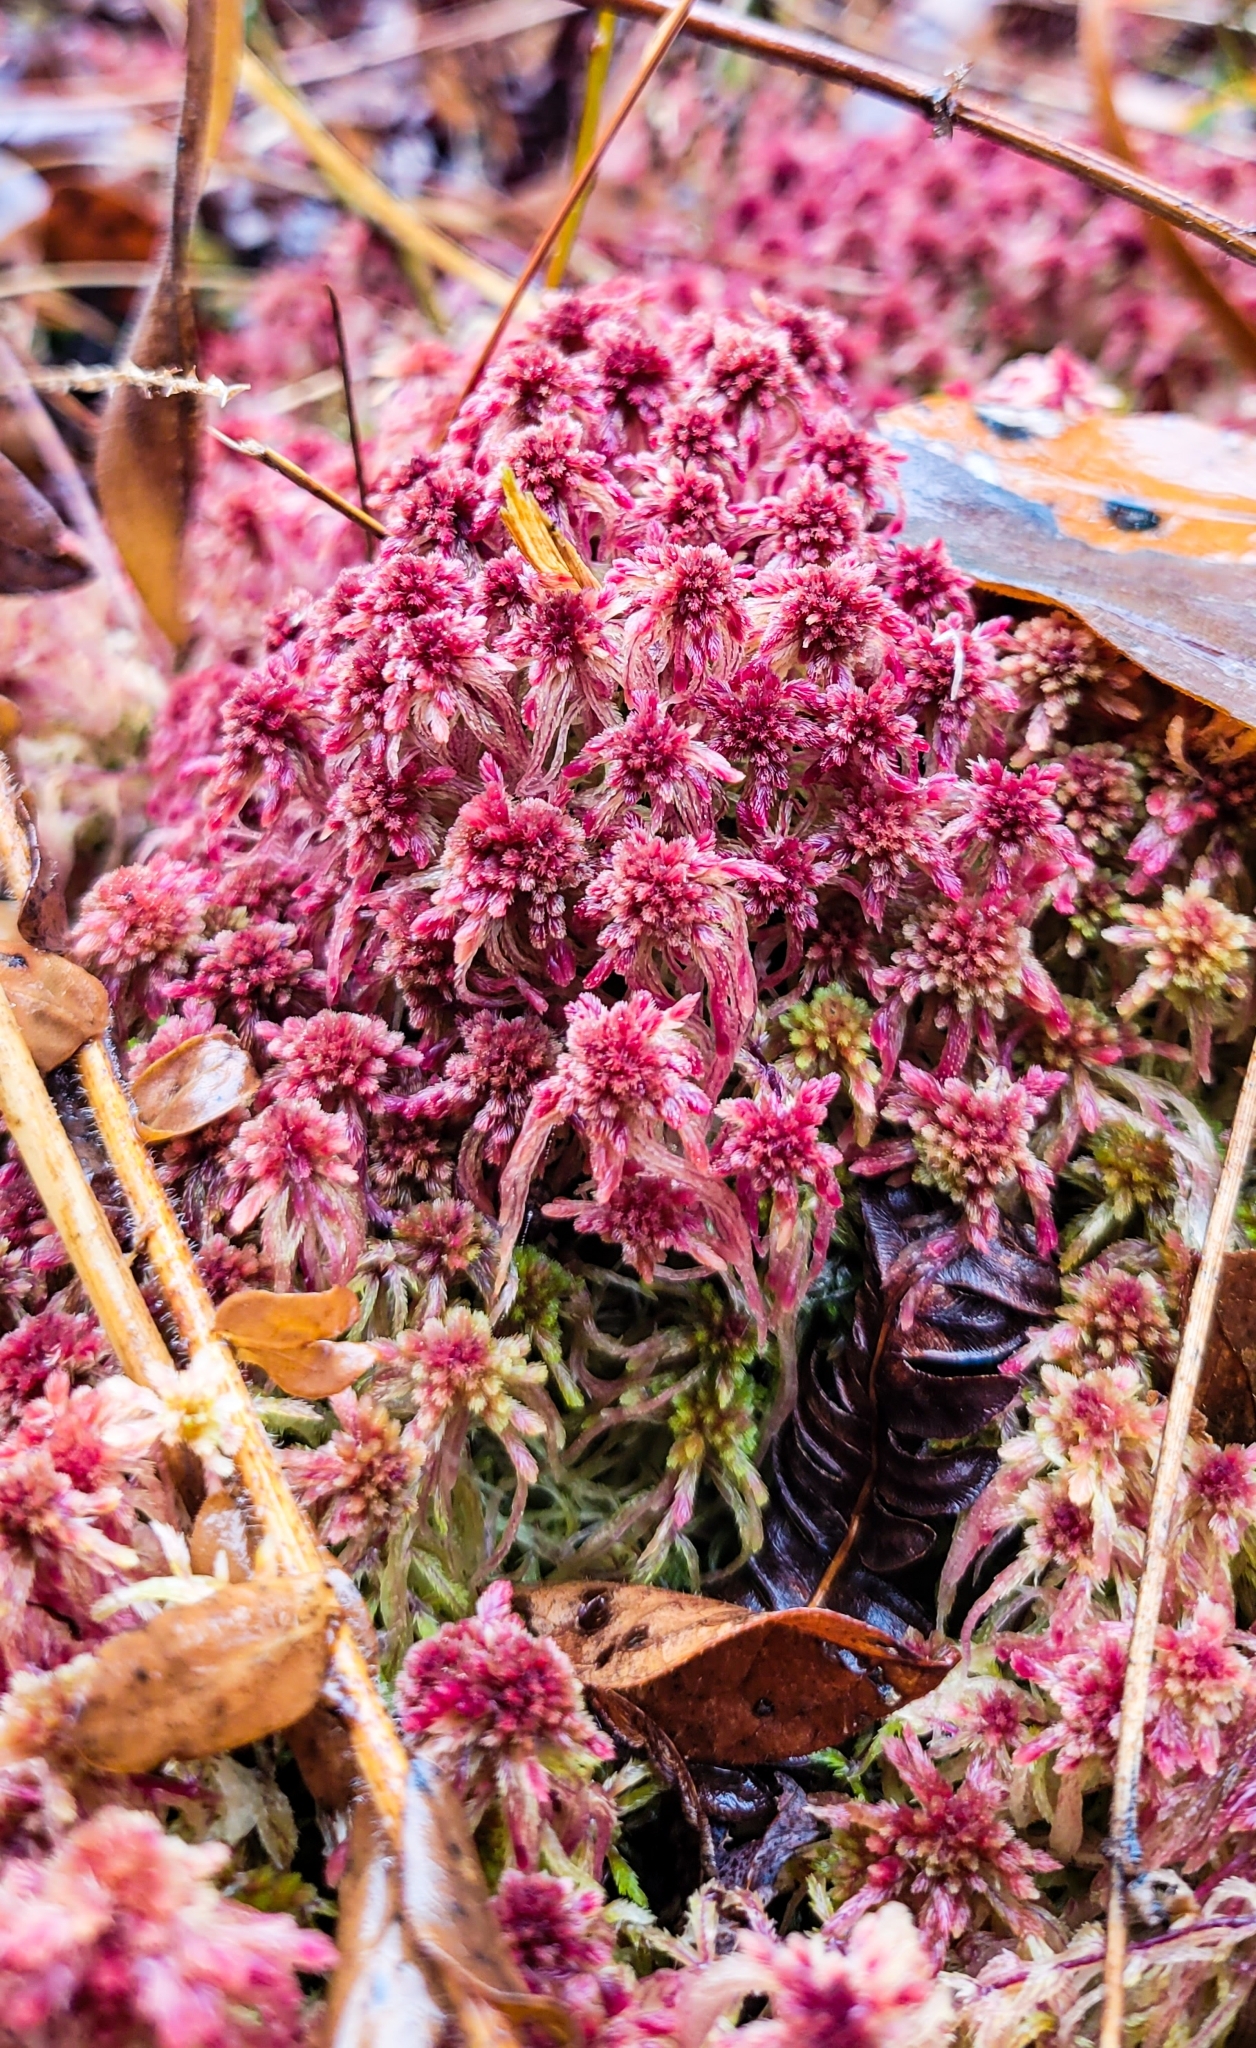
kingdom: Plantae
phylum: Bryophyta
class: Sphagnopsida
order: Sphagnales
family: Sphagnaceae
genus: Sphagnum
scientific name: Sphagnum bartlettianum
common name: Bartlett's peatmoss
